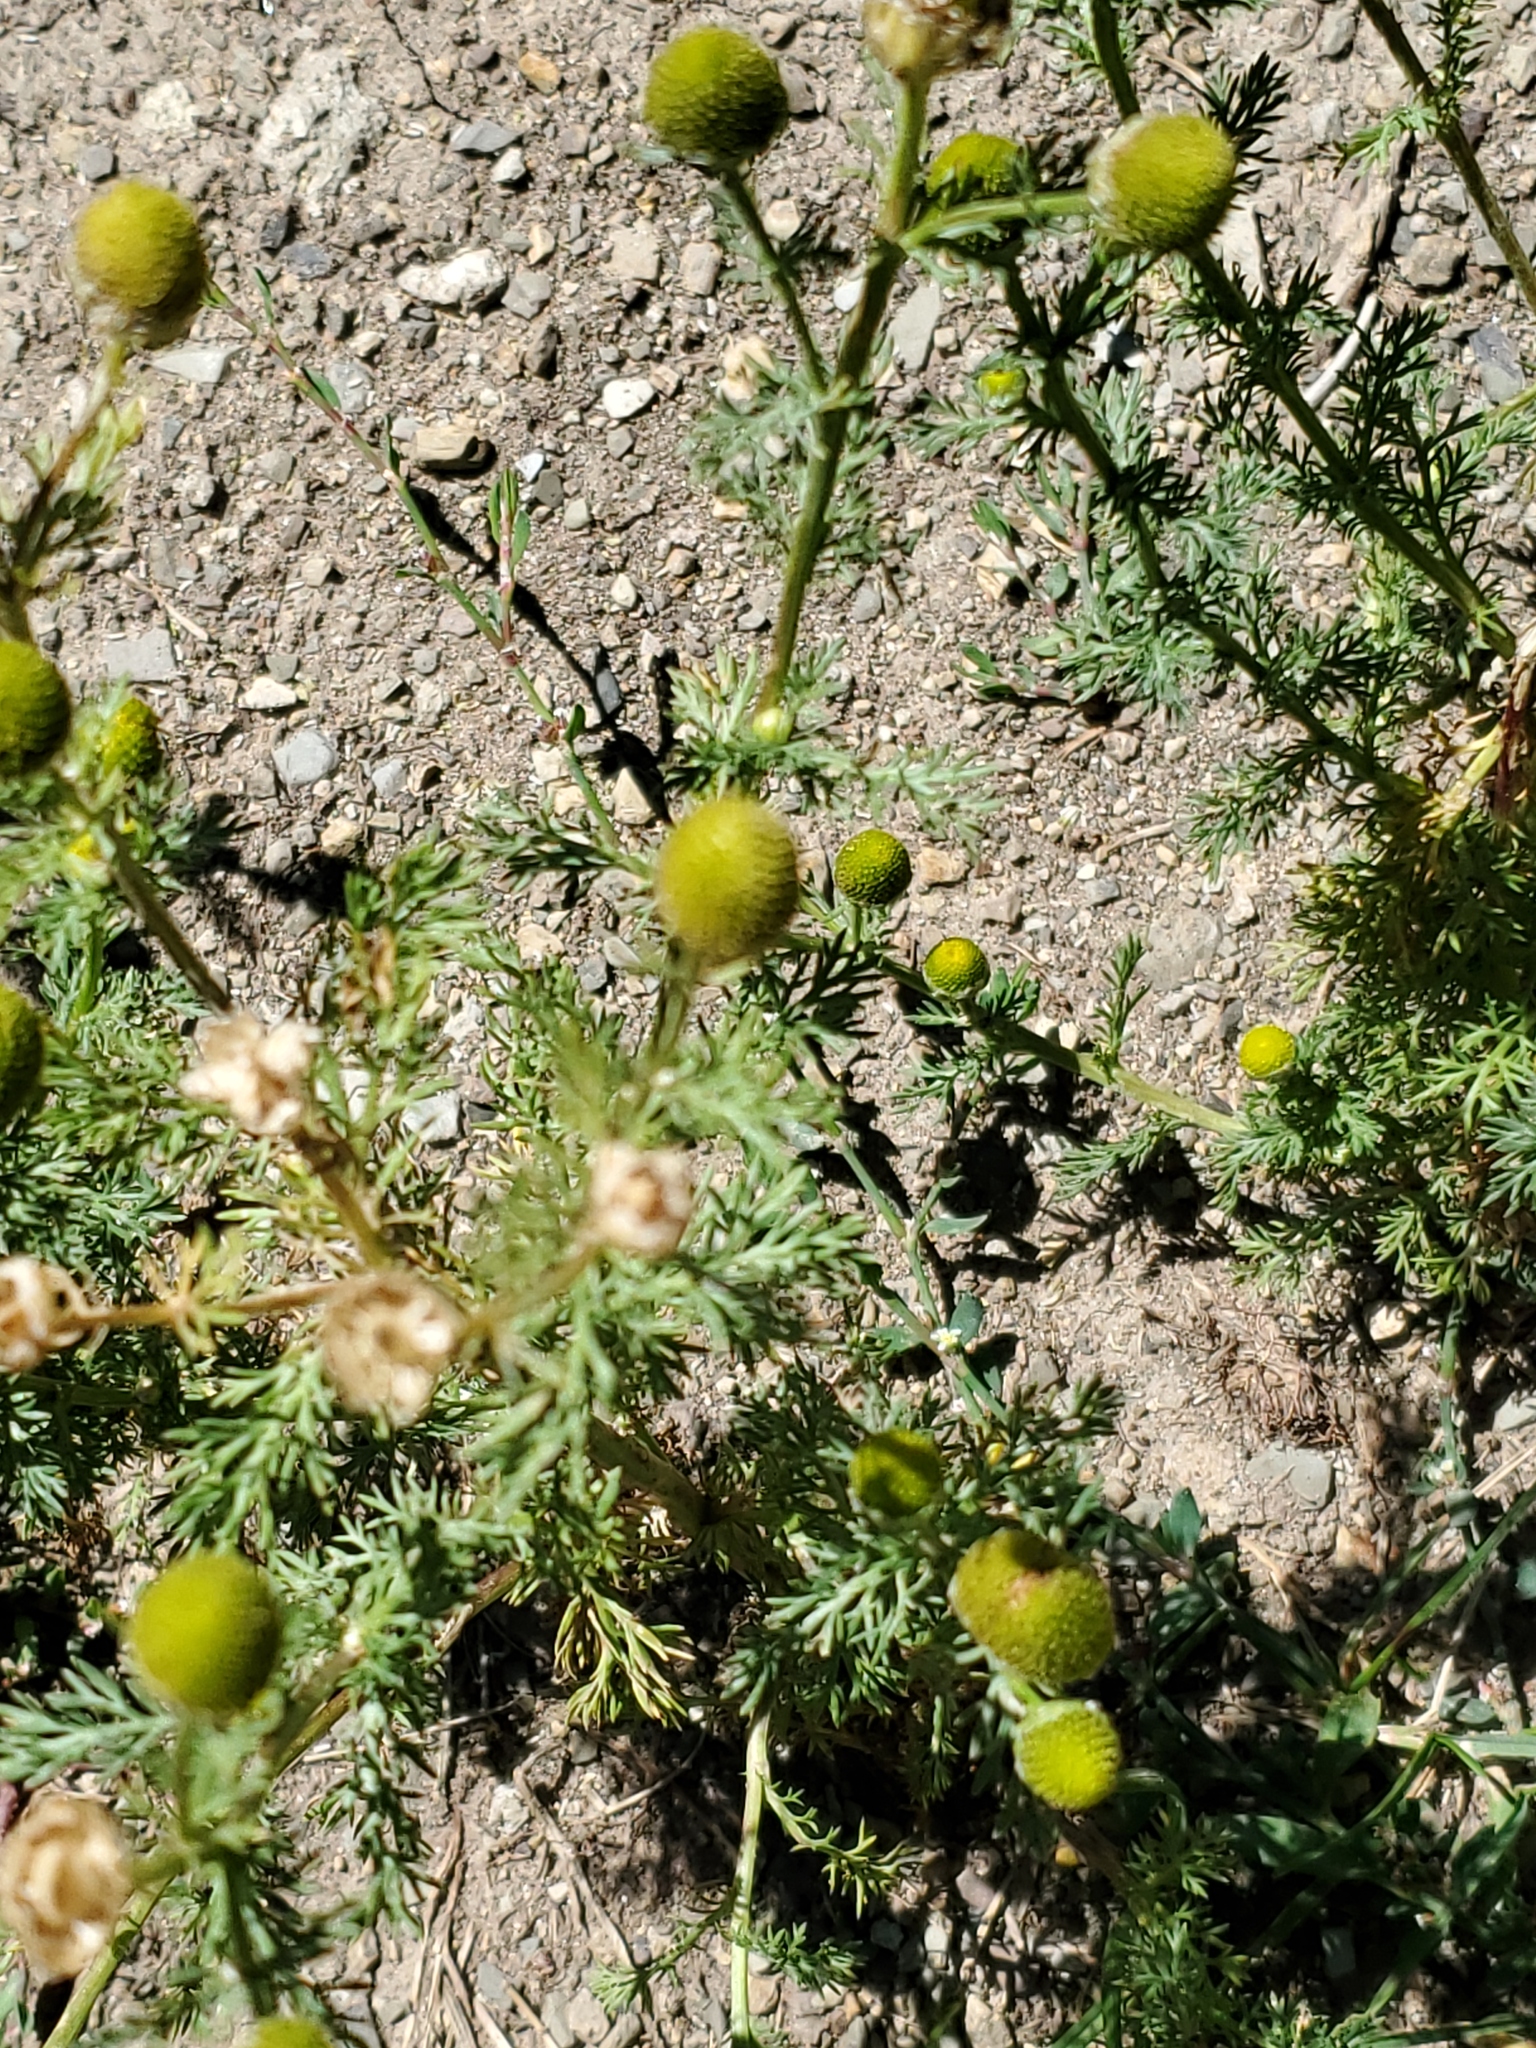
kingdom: Plantae
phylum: Tracheophyta
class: Magnoliopsida
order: Asterales
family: Asteraceae
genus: Matricaria
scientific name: Matricaria discoidea
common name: Disc mayweed
